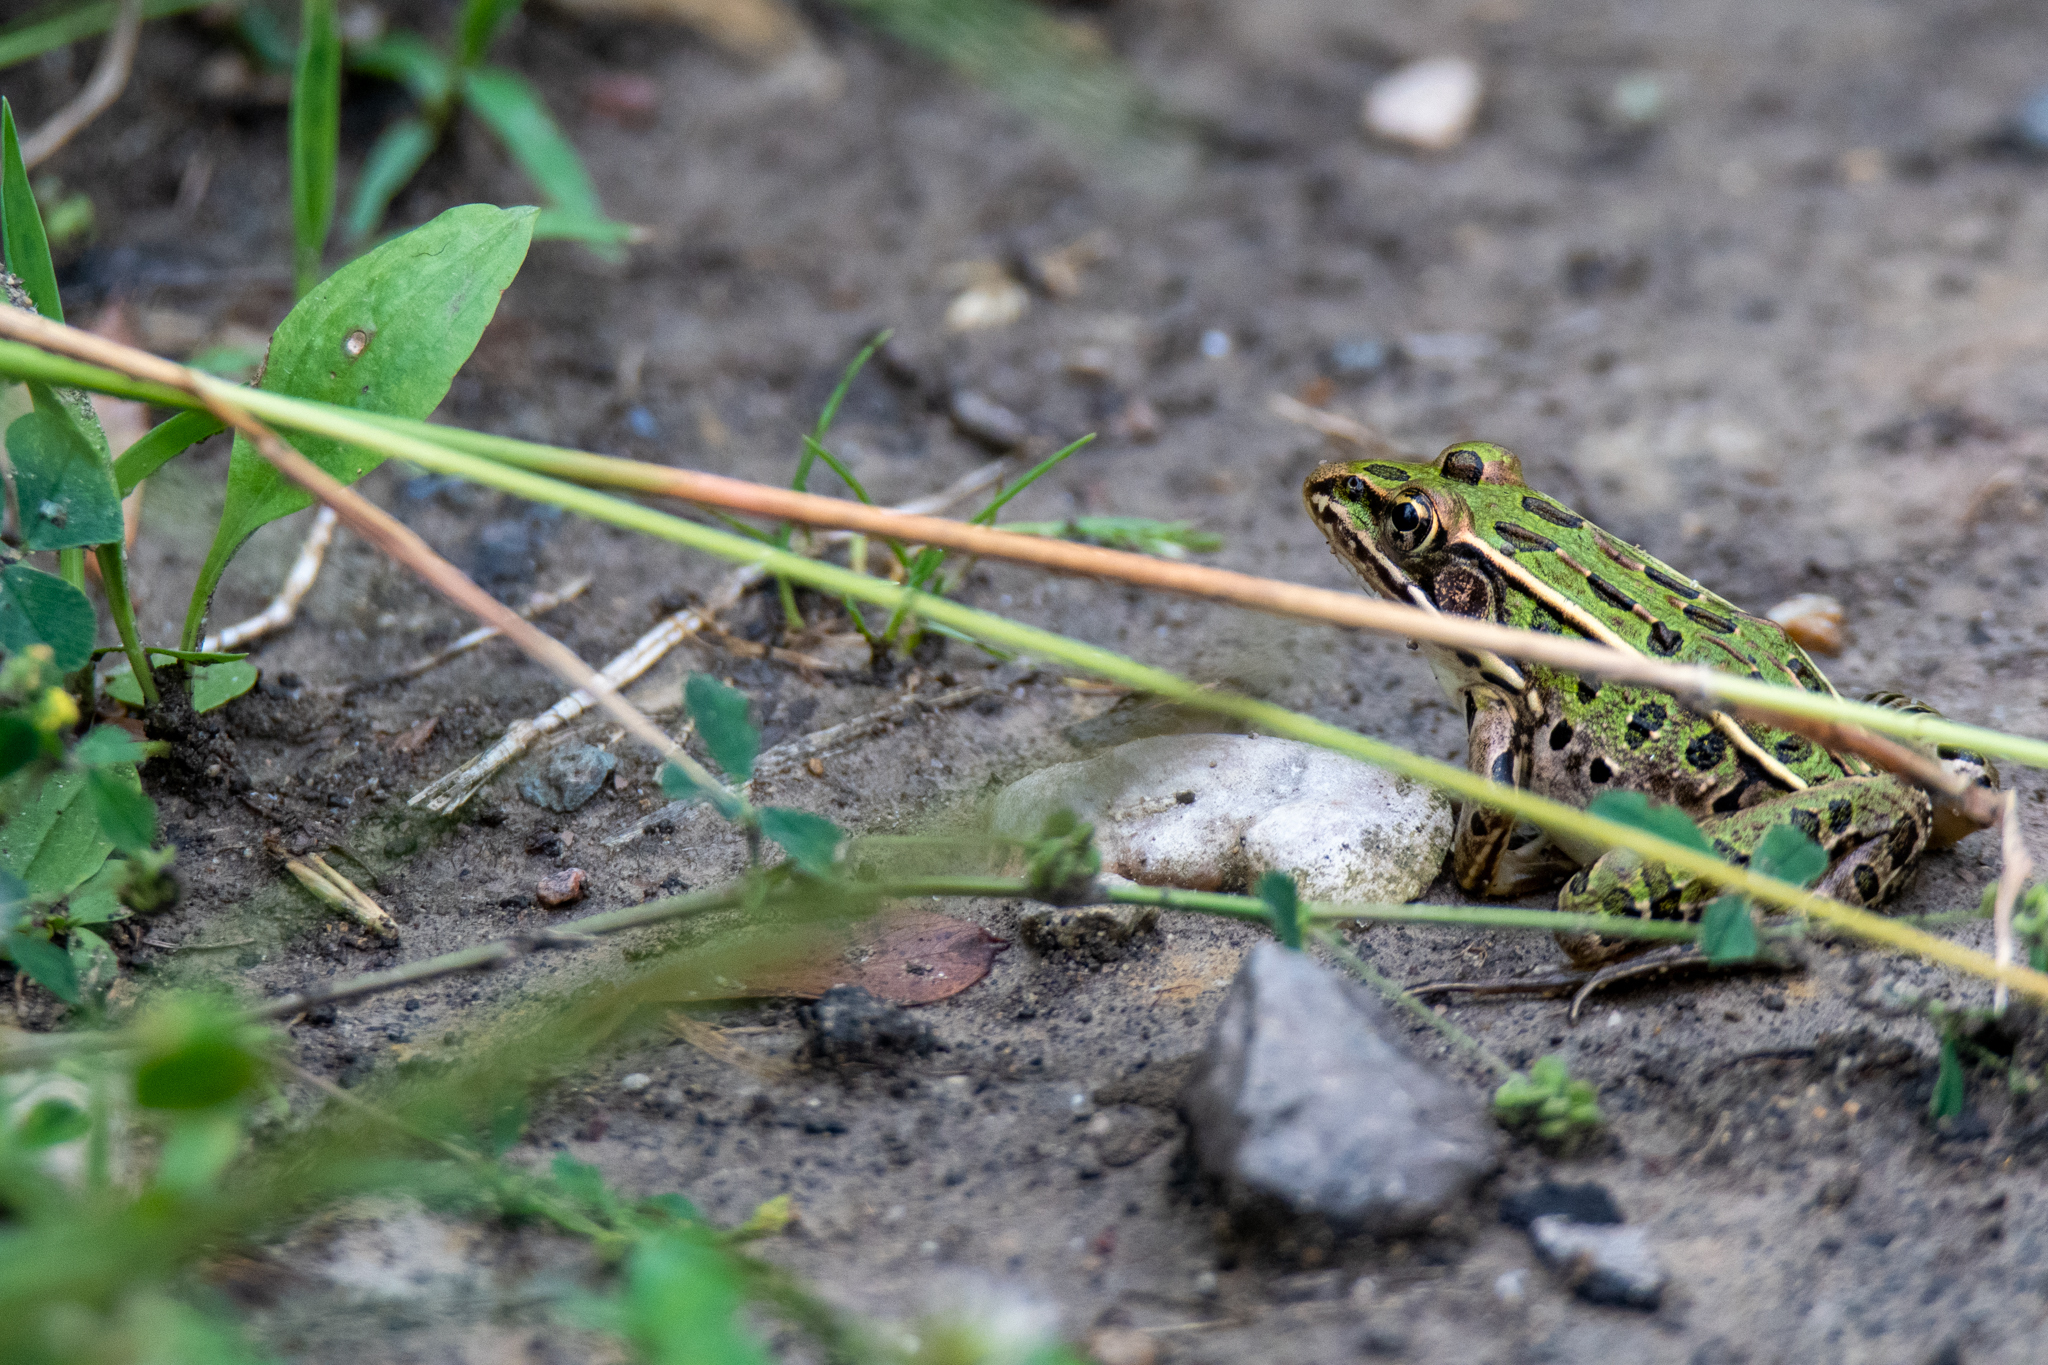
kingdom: Animalia
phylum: Chordata
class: Amphibia
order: Anura
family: Ranidae
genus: Lithobates
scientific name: Lithobates pipiens
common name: Northern leopard frog
